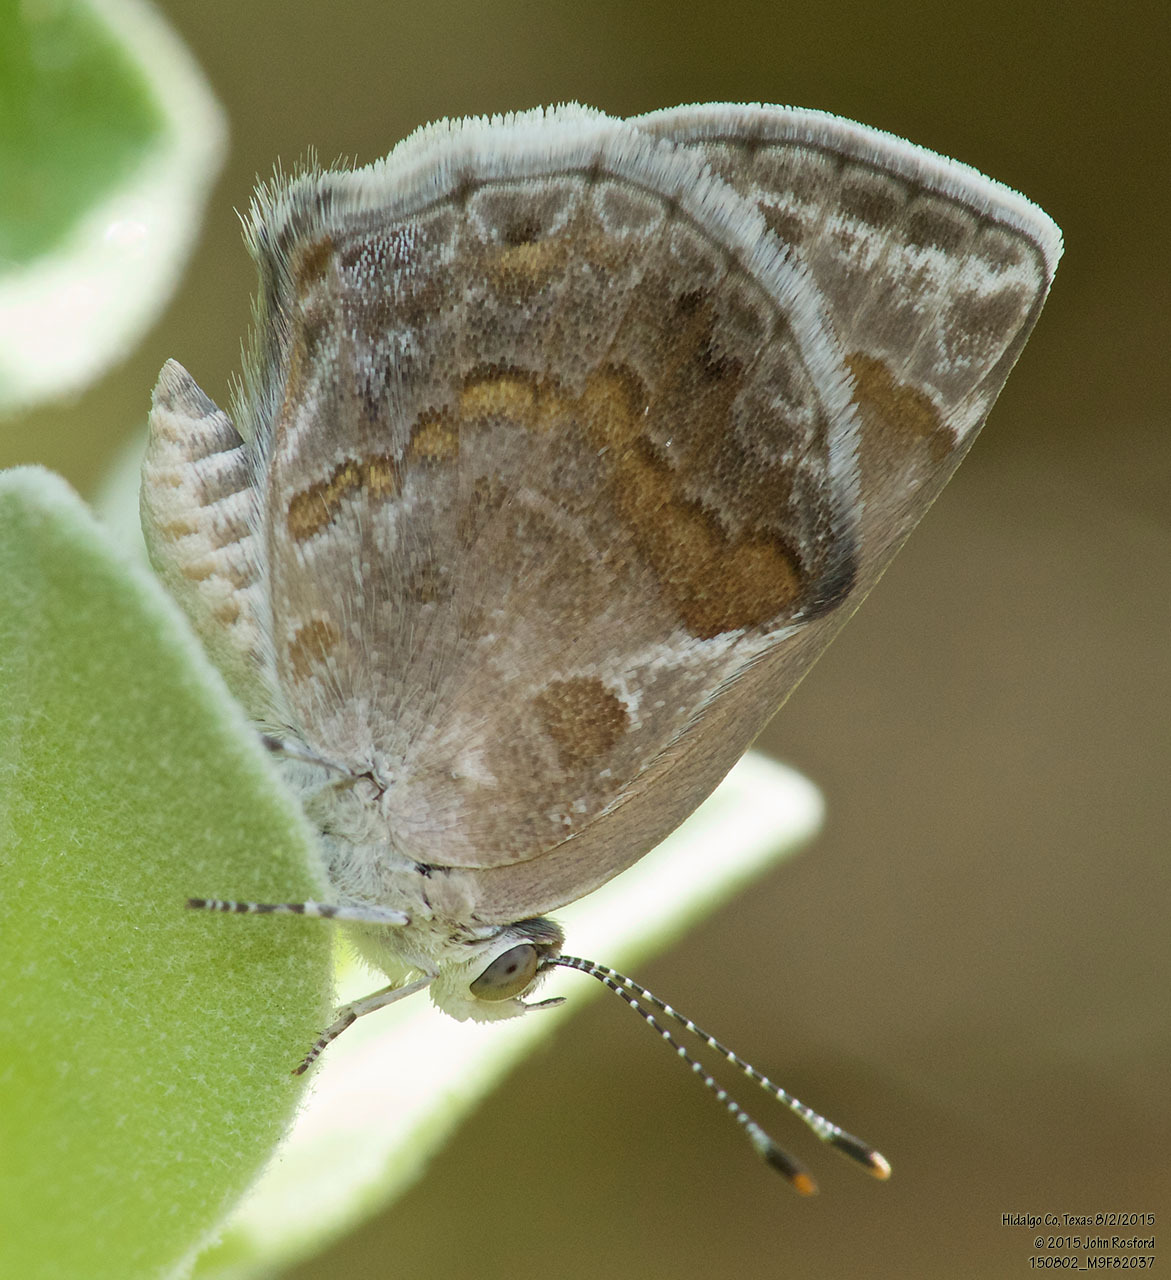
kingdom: Animalia
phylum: Arthropoda
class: Insecta
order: Lepidoptera
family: Lycaenidae
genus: Strymon
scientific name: Strymon bazochii
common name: Lantana scrub-hairstreak
